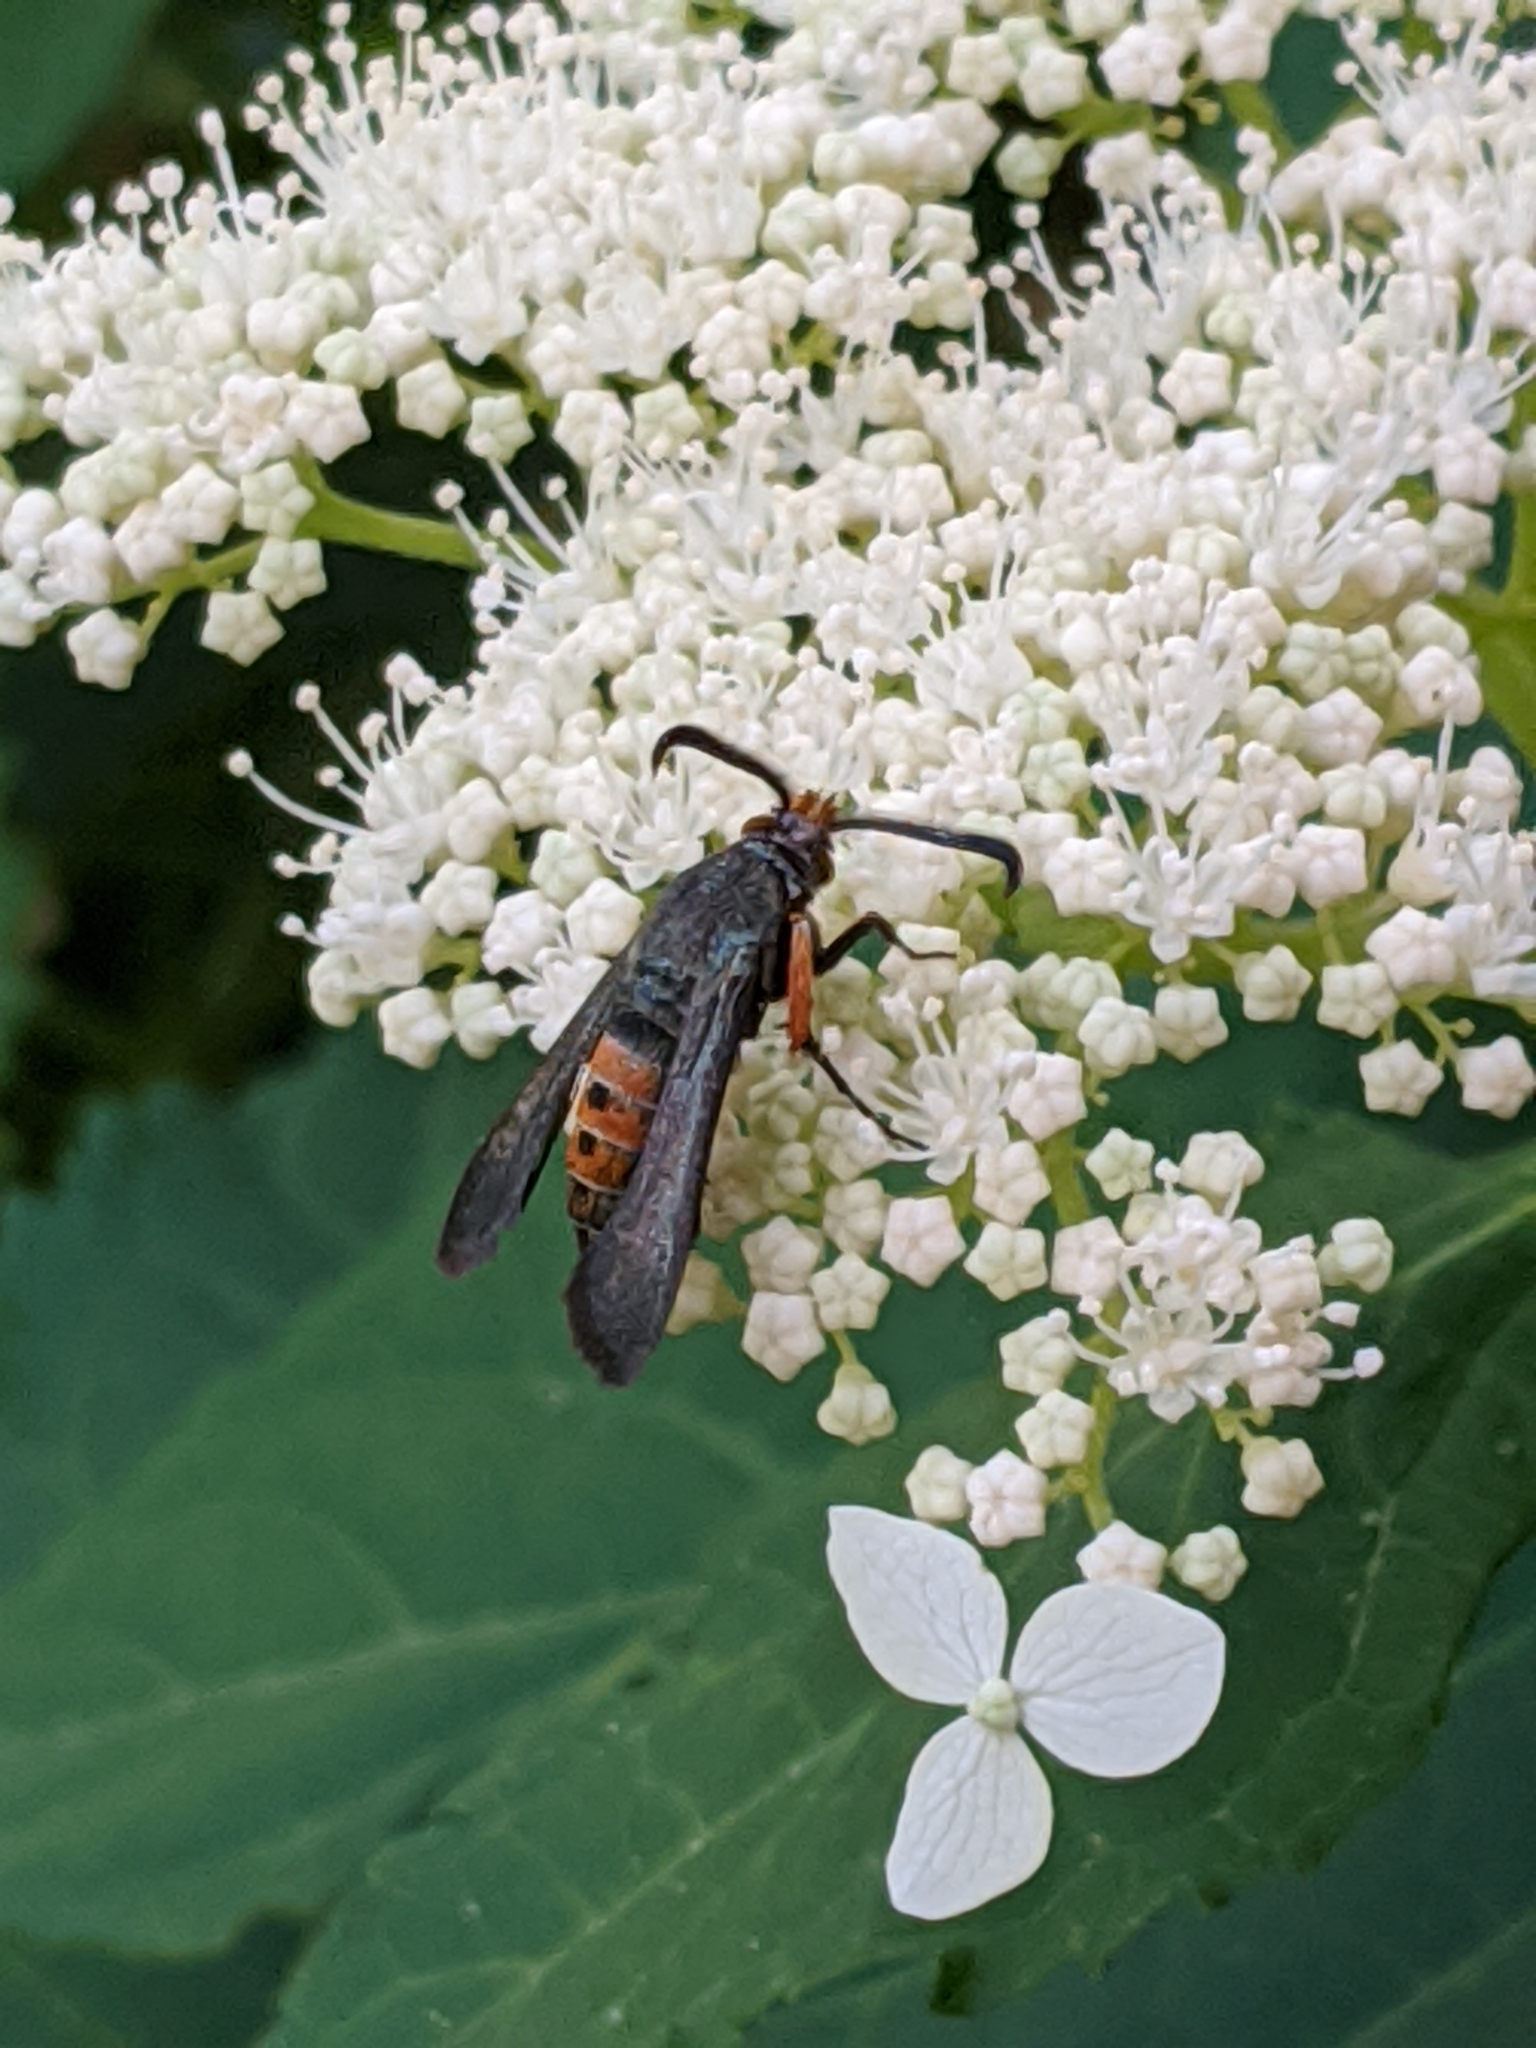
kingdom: Animalia
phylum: Arthropoda
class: Insecta
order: Lepidoptera
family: Sesiidae
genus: Eichlinia
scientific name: Eichlinia cucurbitae
